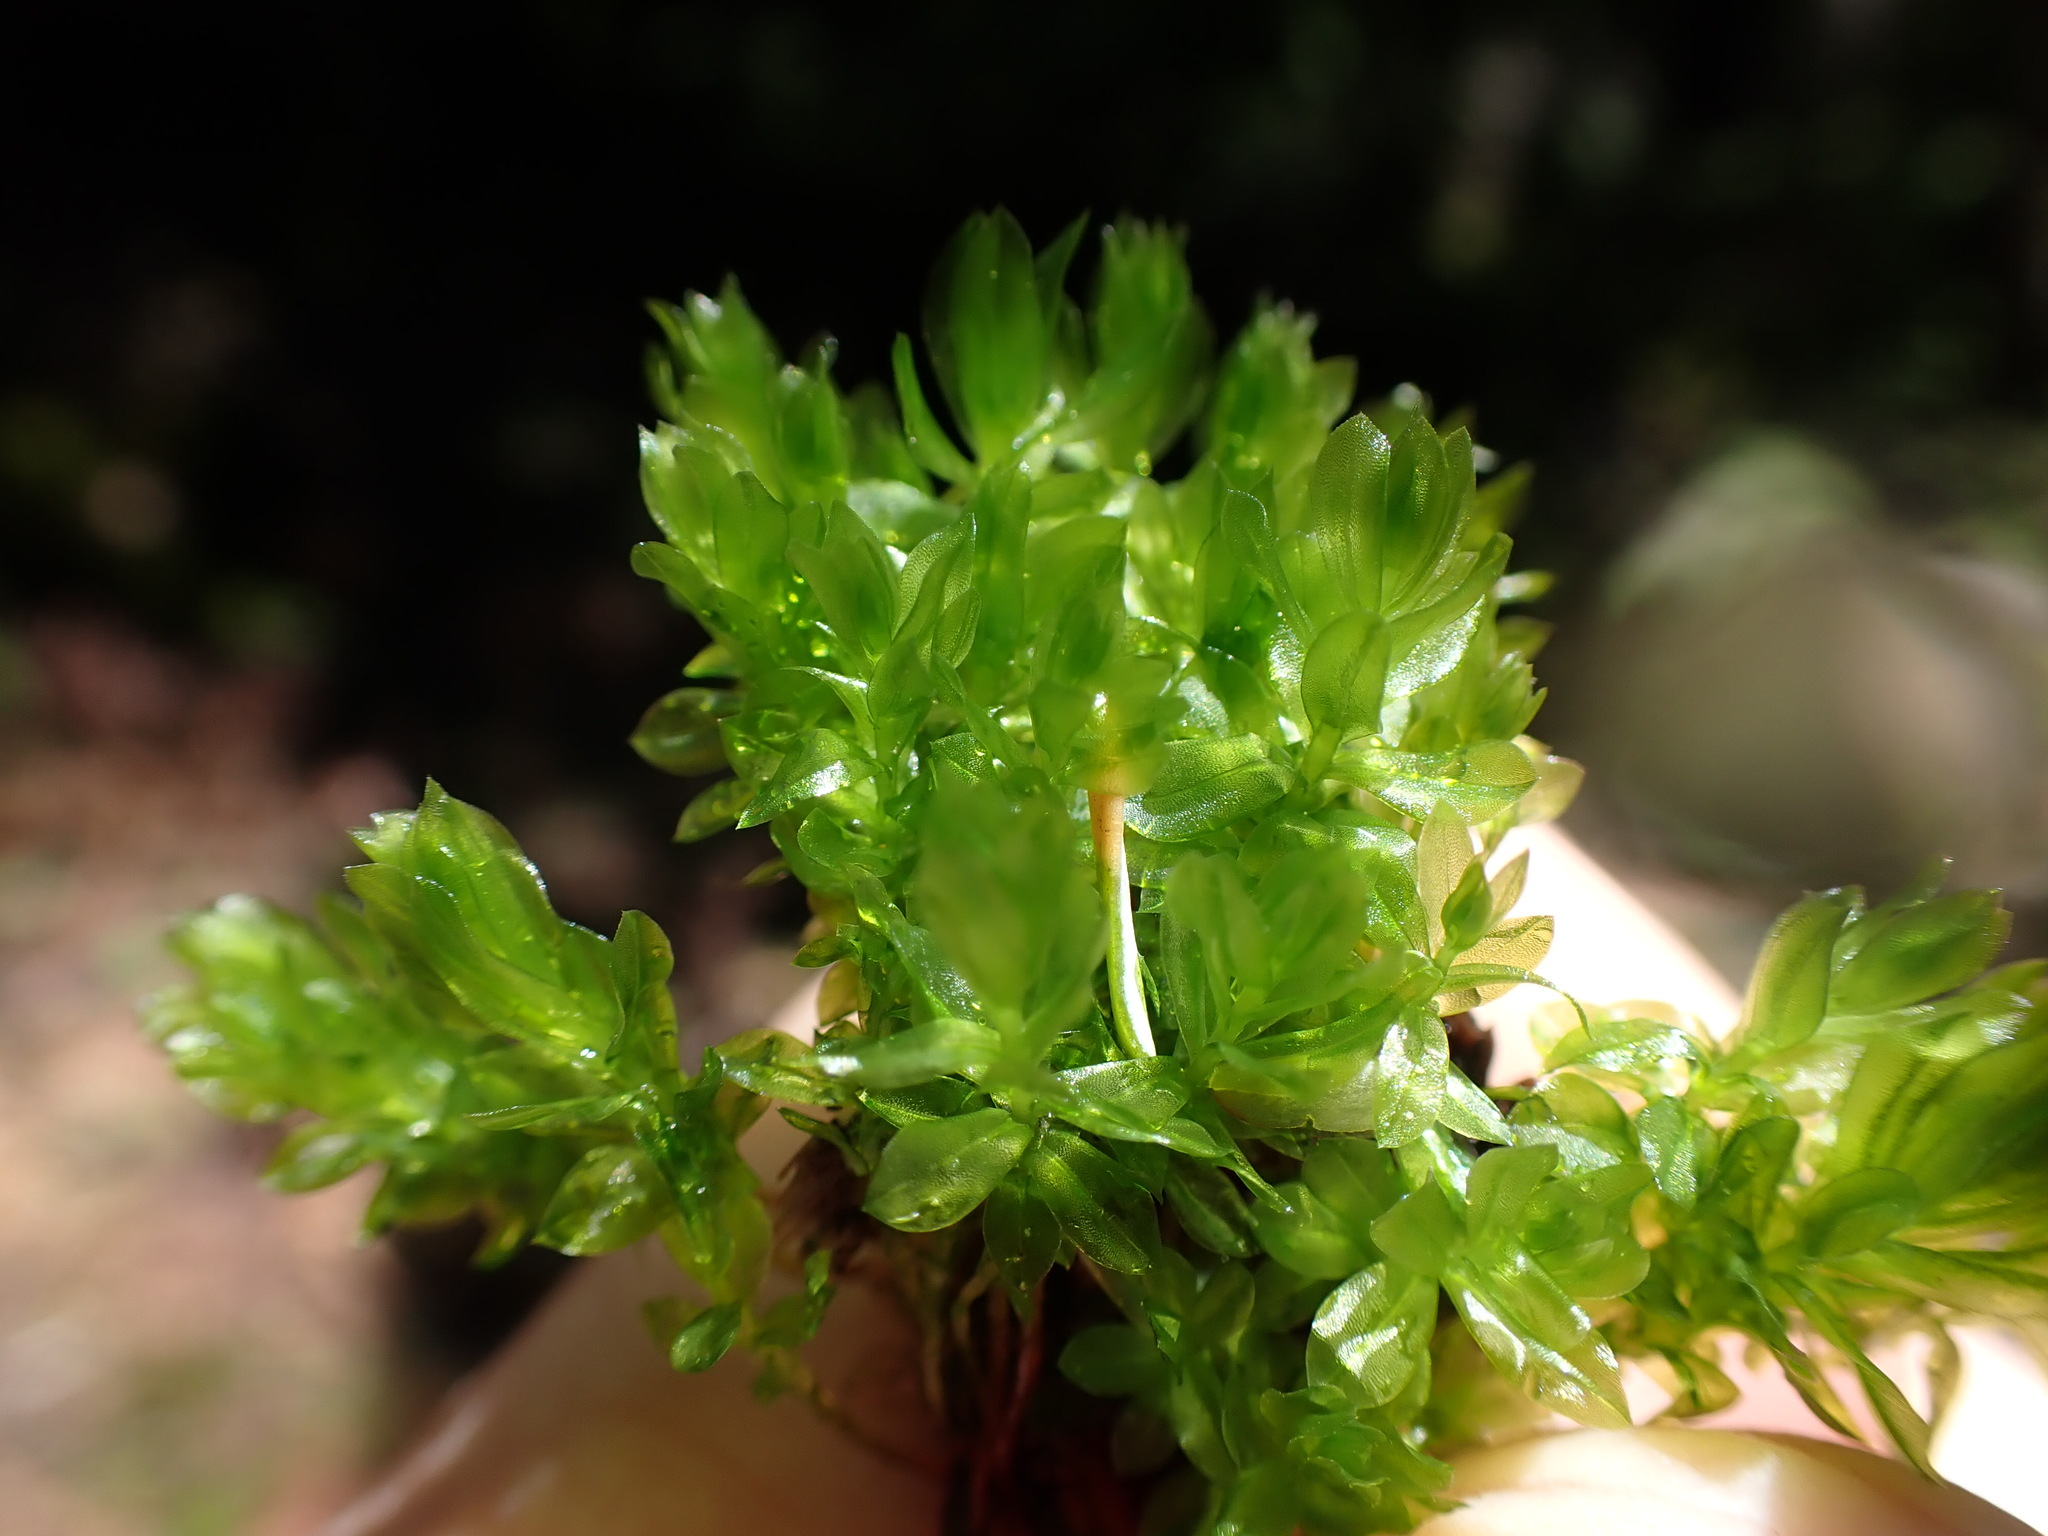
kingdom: Plantae
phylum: Bryophyta
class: Bryopsida
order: Bryales
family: Bryaceae
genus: Roellobryon
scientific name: Roellobryon roellii
